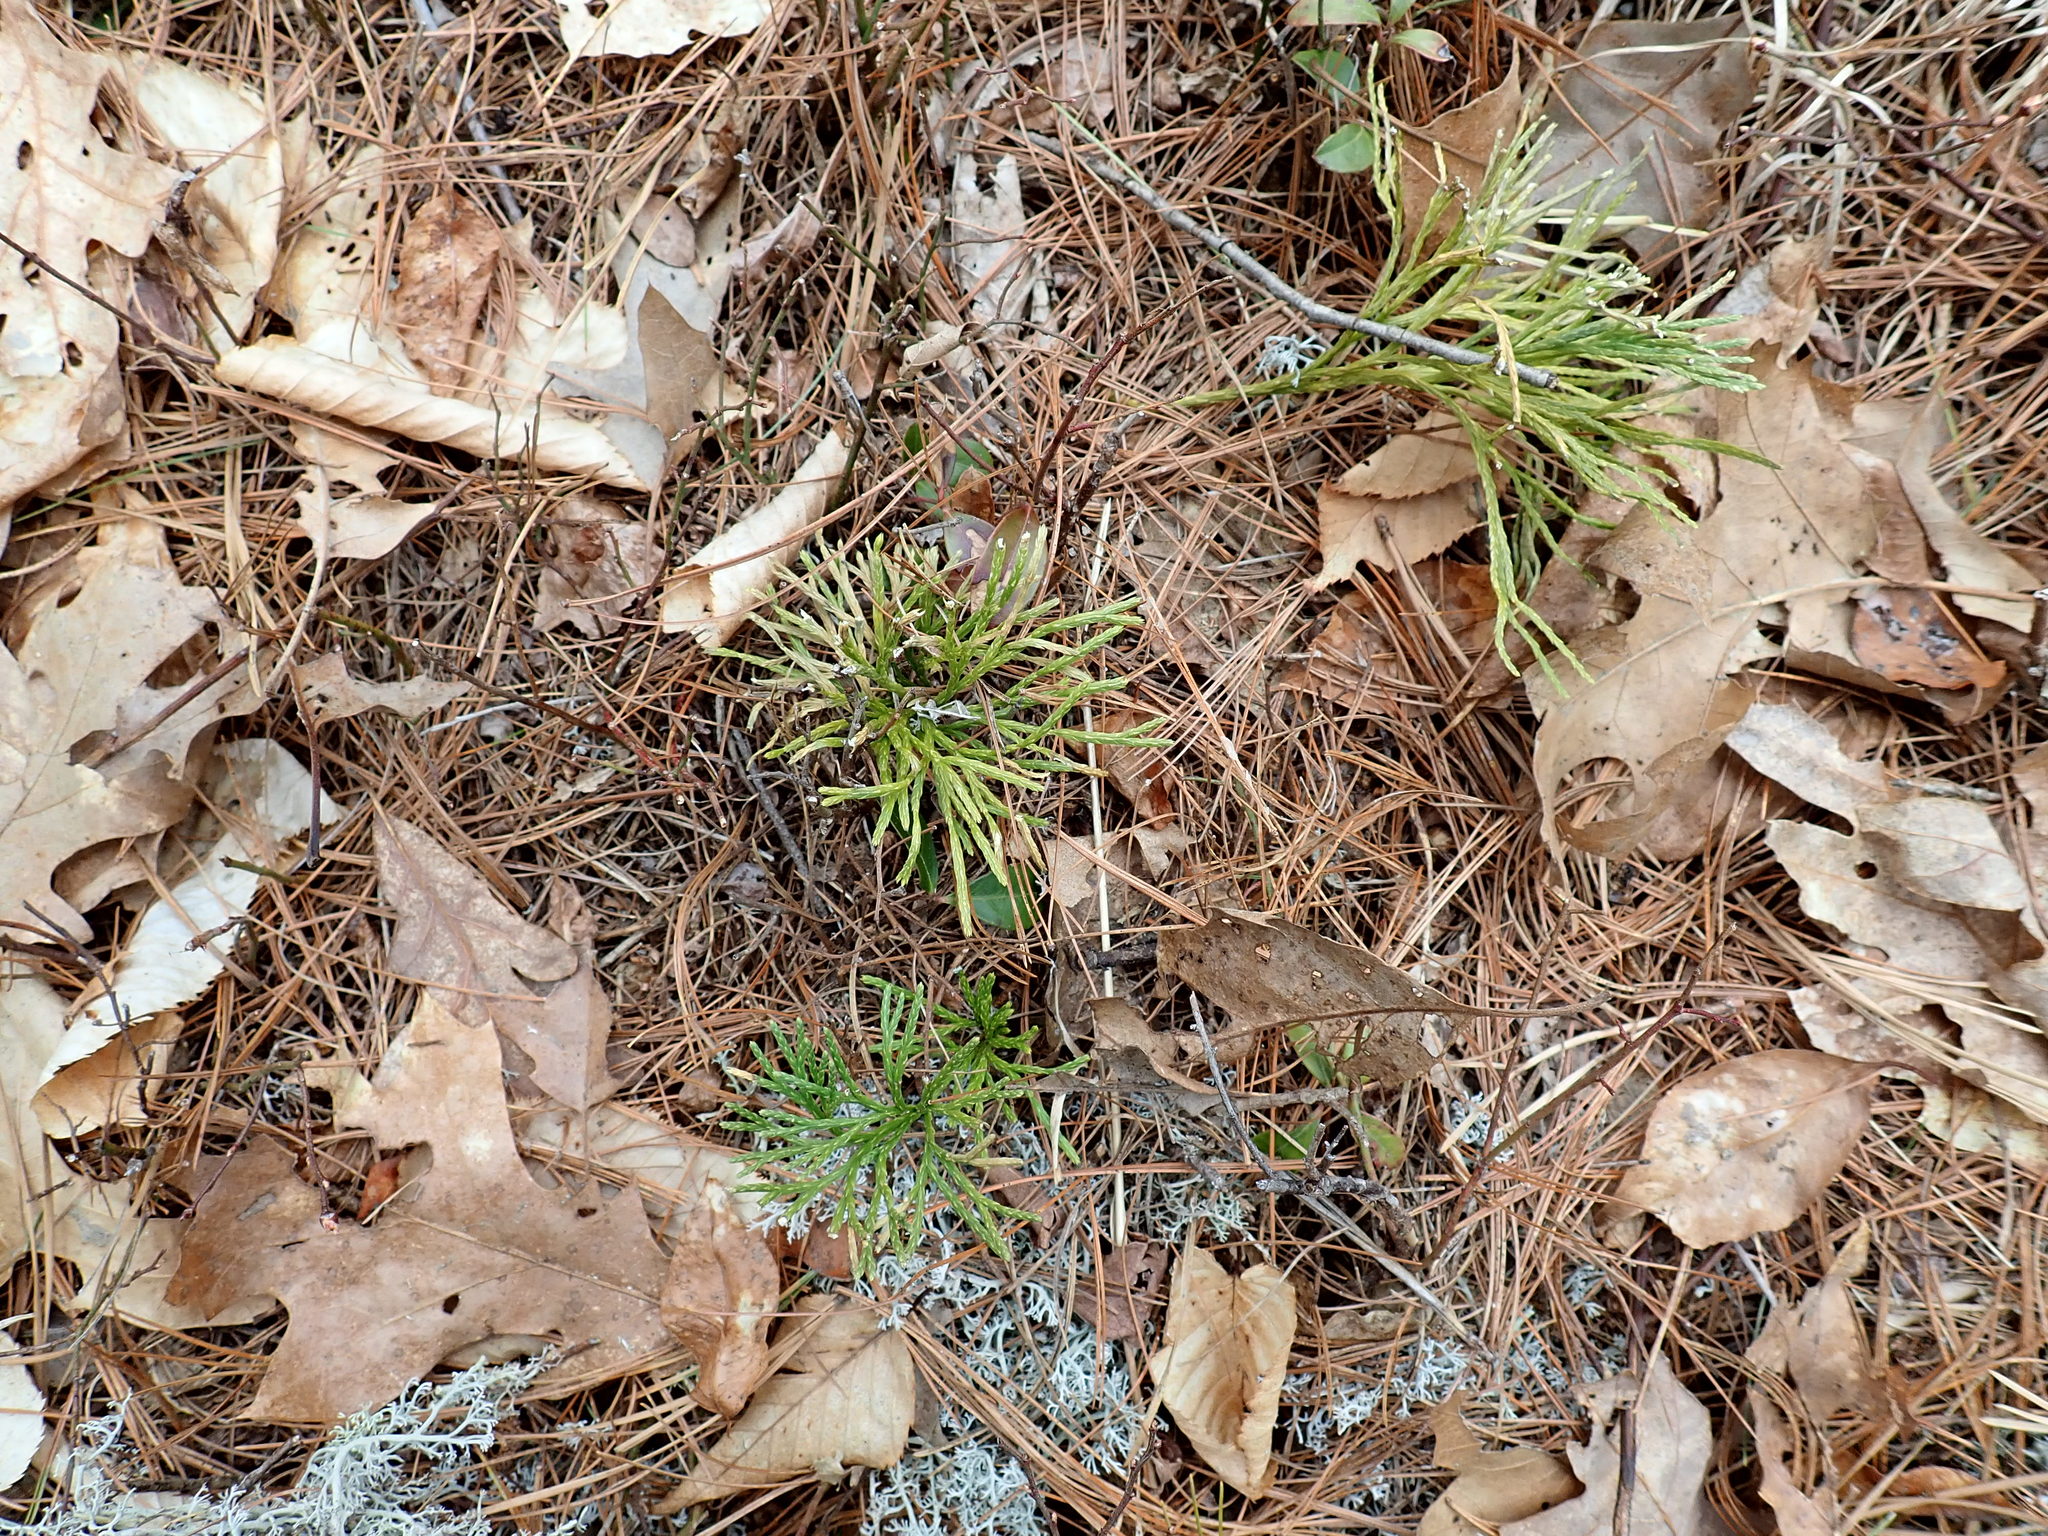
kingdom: Plantae
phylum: Tracheophyta
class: Lycopodiopsida
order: Lycopodiales
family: Lycopodiaceae
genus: Diphasiastrum
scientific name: Diphasiastrum tristachyum
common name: Blue ground-cedar
